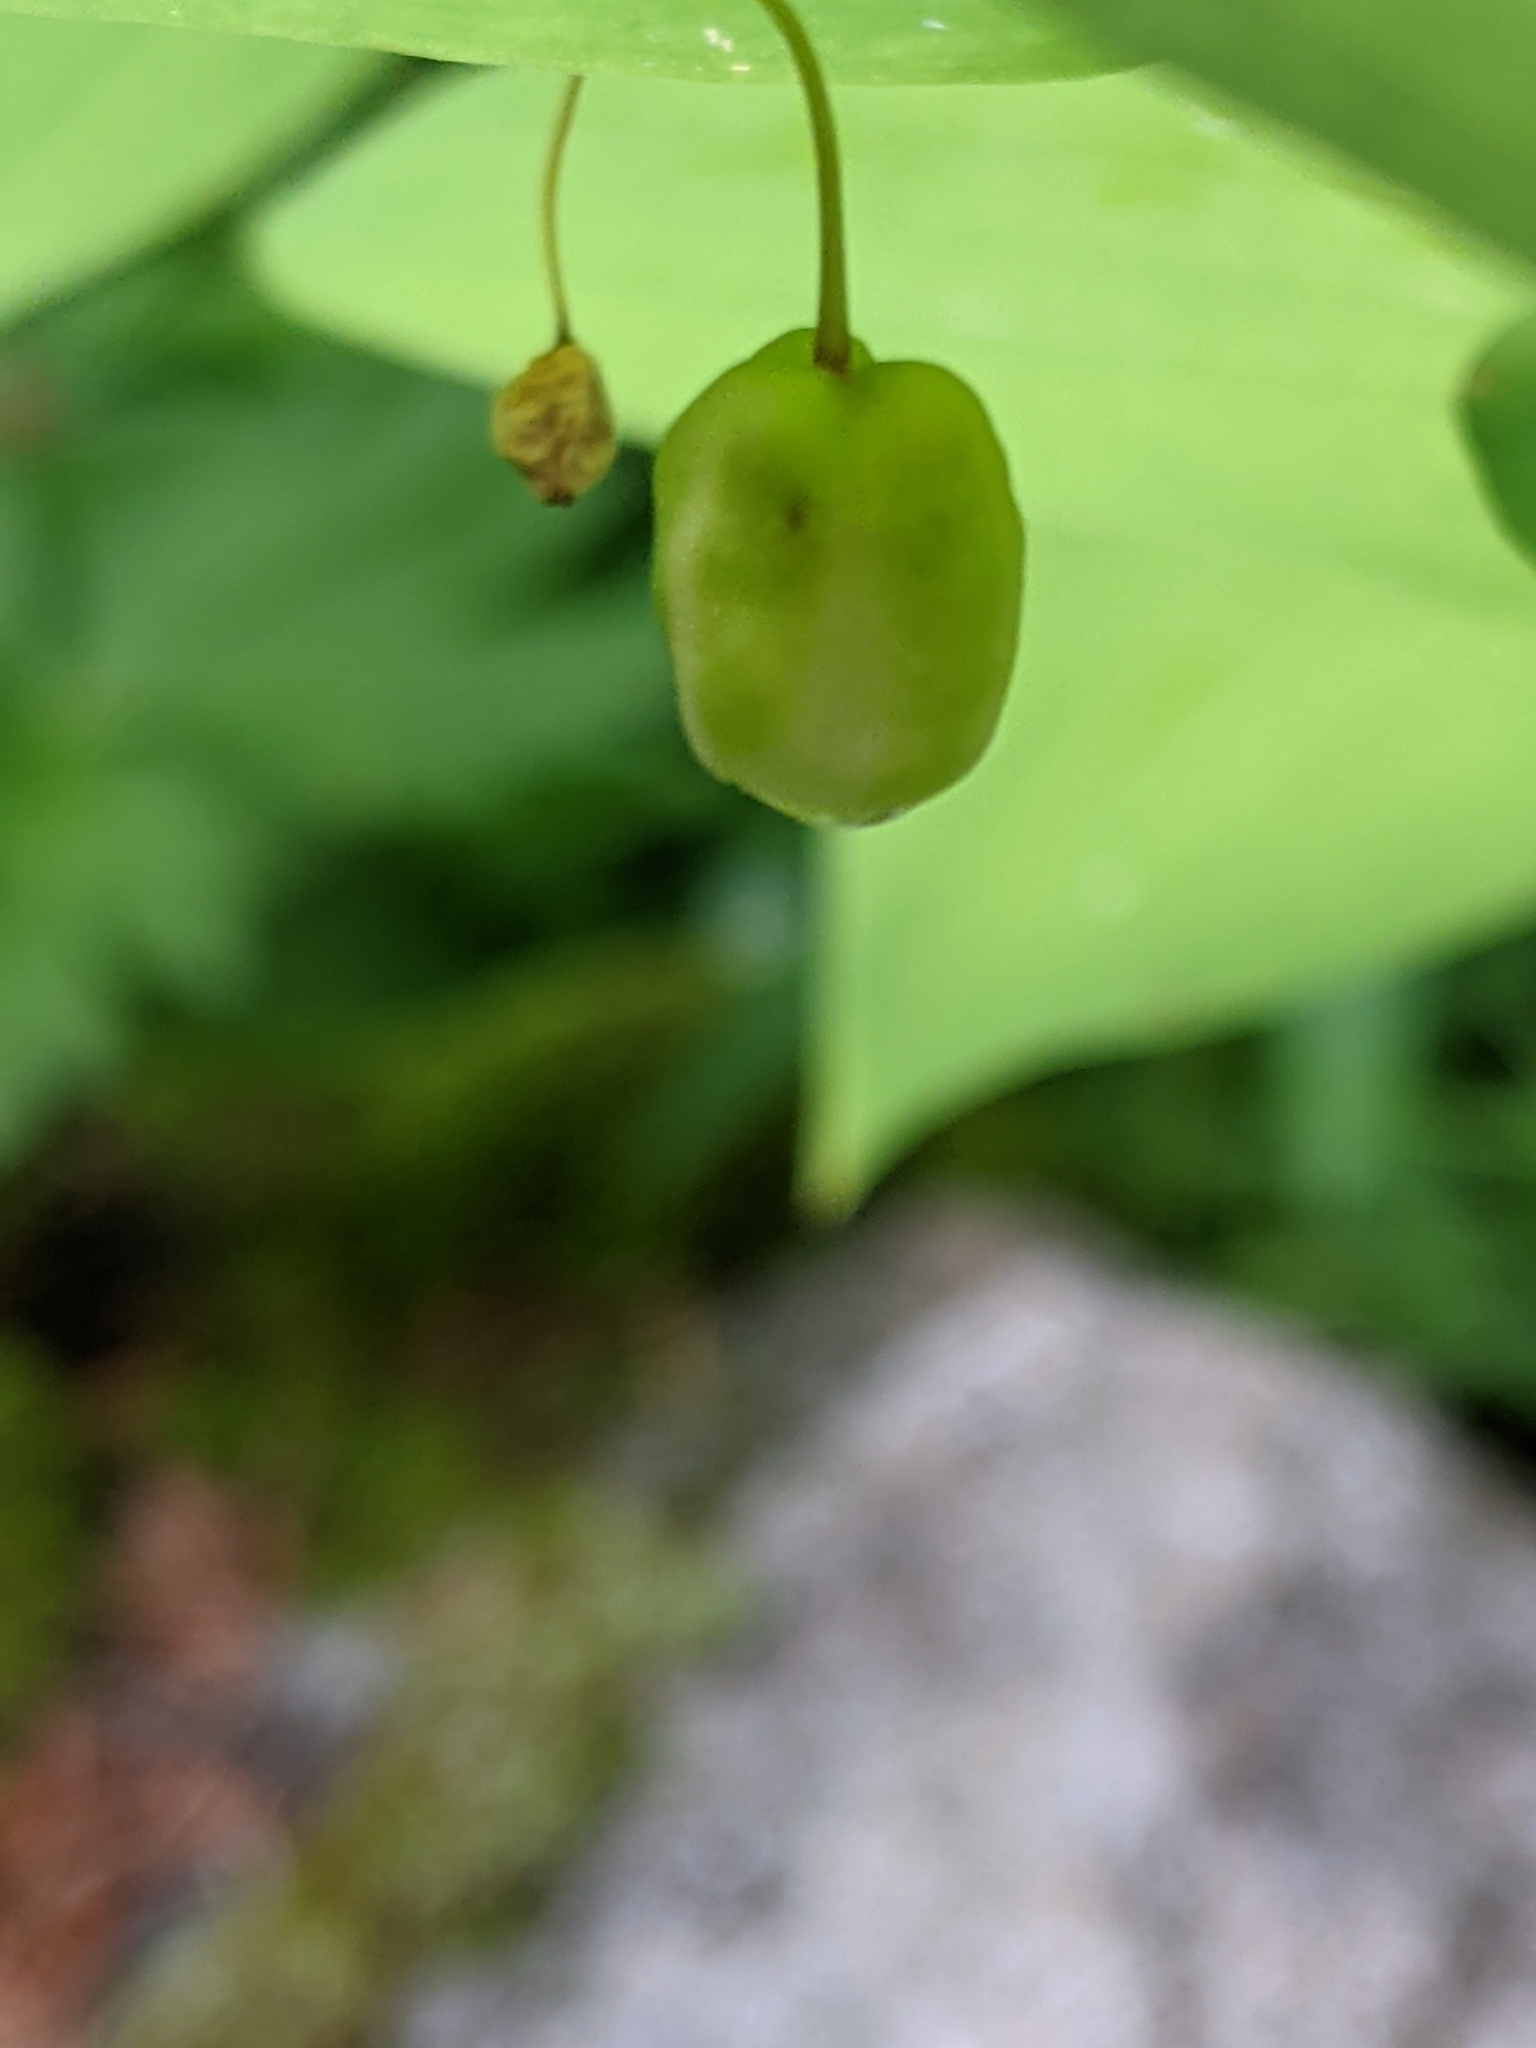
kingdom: Plantae
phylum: Tracheophyta
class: Liliopsida
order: Liliales
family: Liliaceae
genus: Streptopus
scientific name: Streptopus amplexifolius
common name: Clasp twisted stalk
